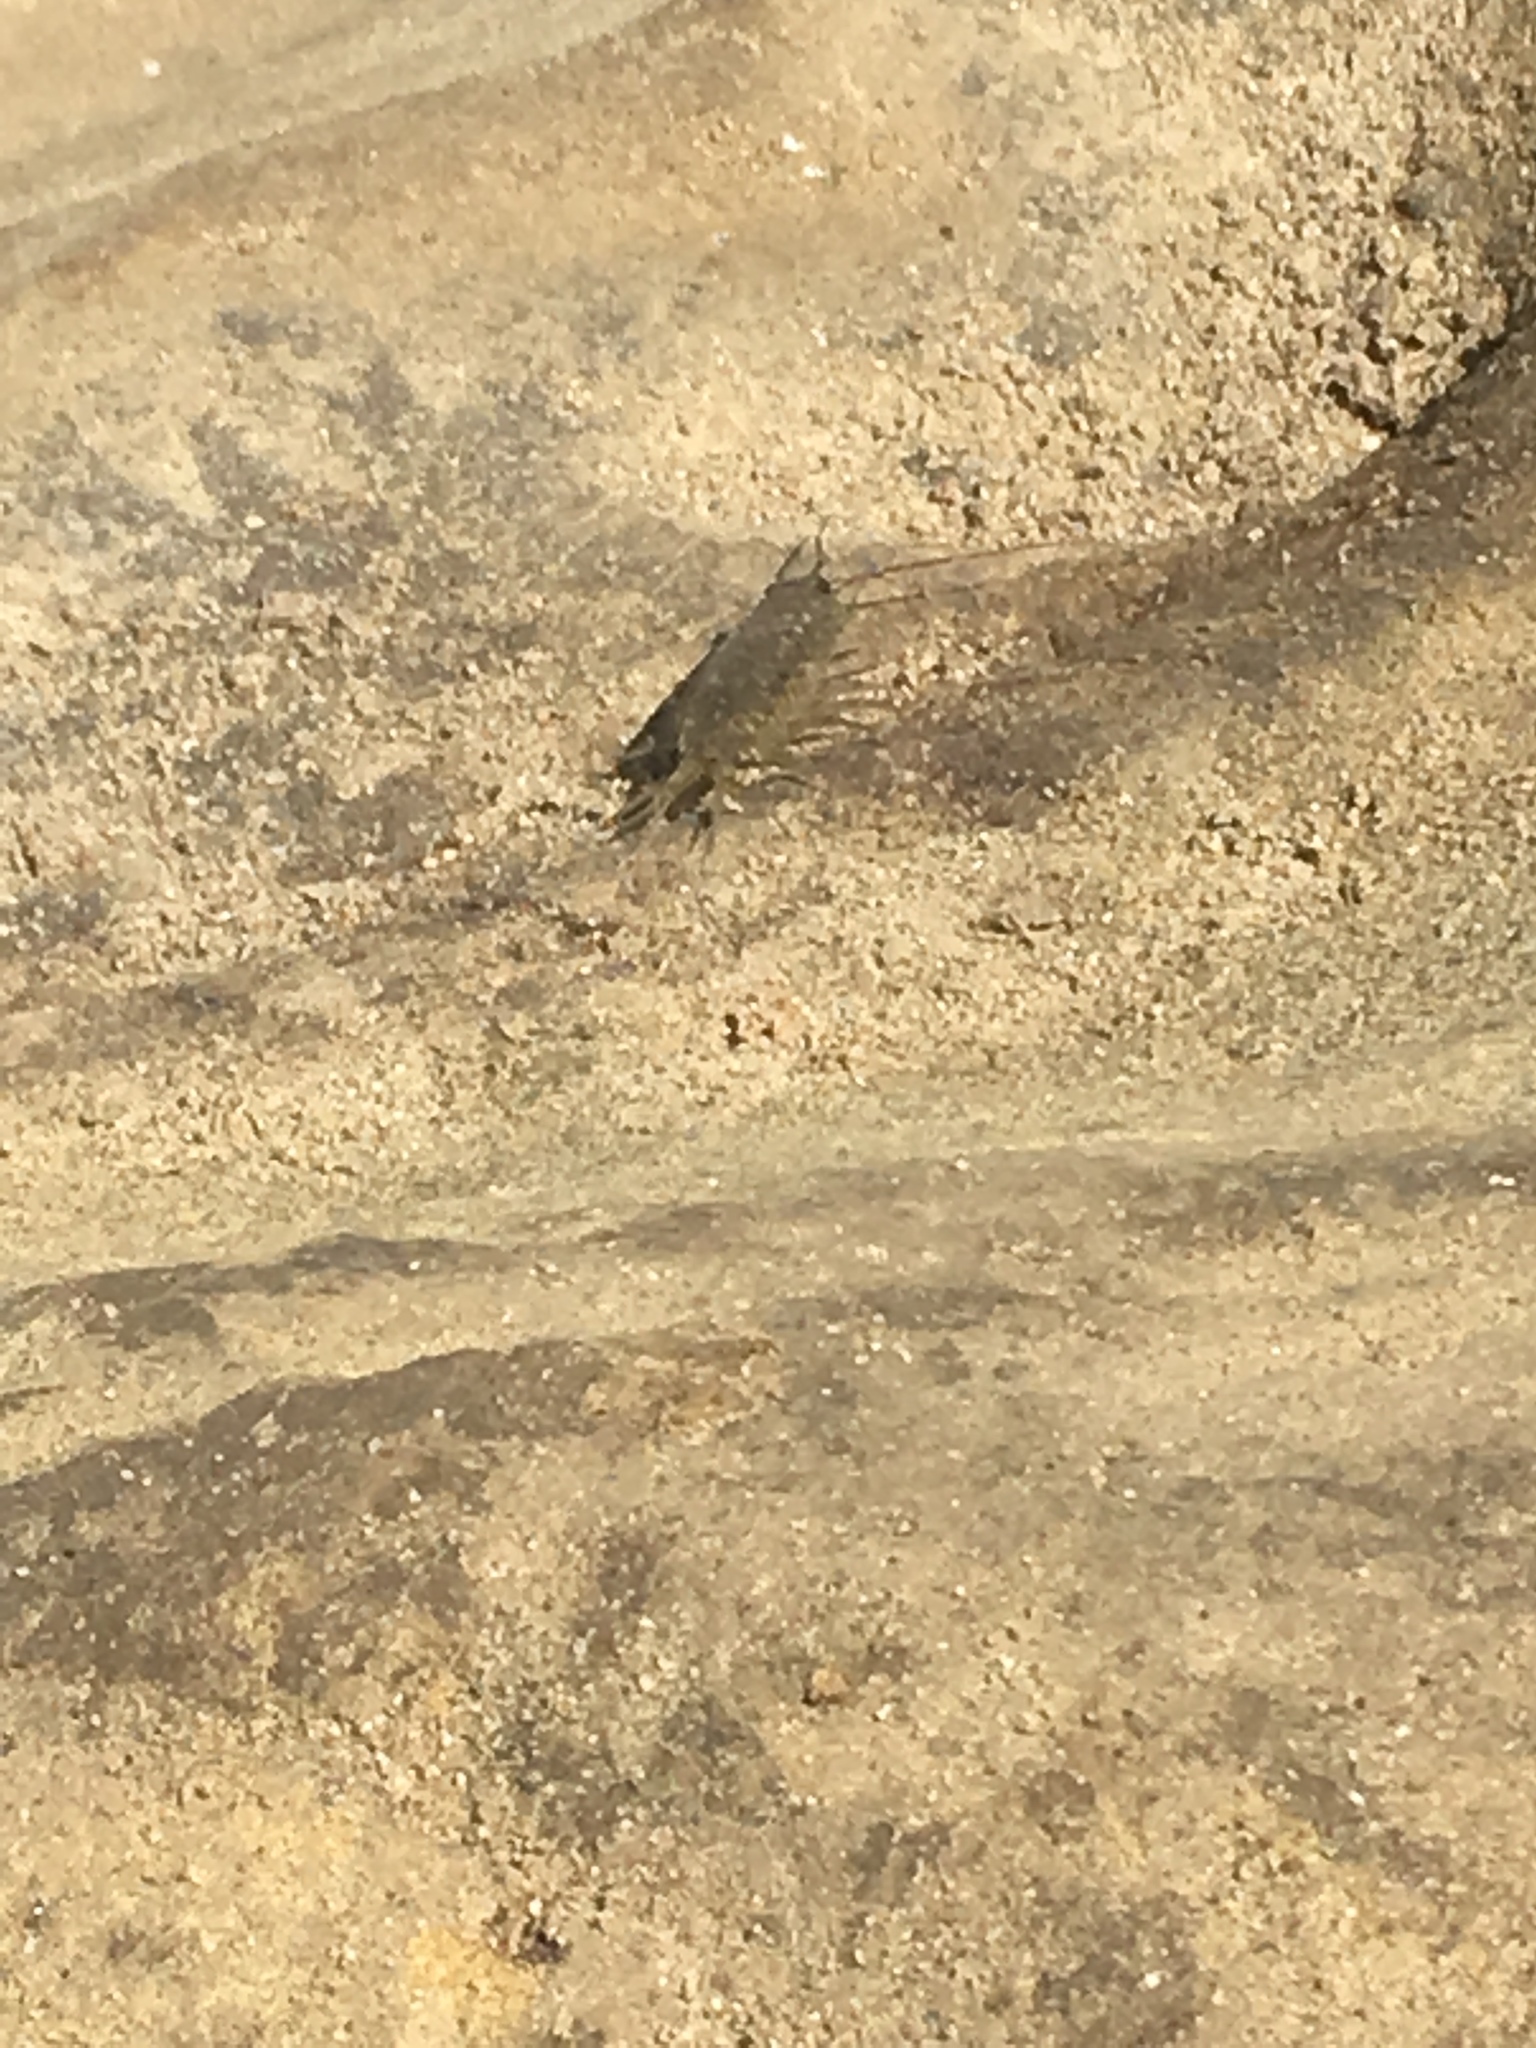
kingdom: Animalia
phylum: Arthropoda
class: Malacostraca
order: Isopoda
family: Ligiidae
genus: Ligia
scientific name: Ligia occidentalis
